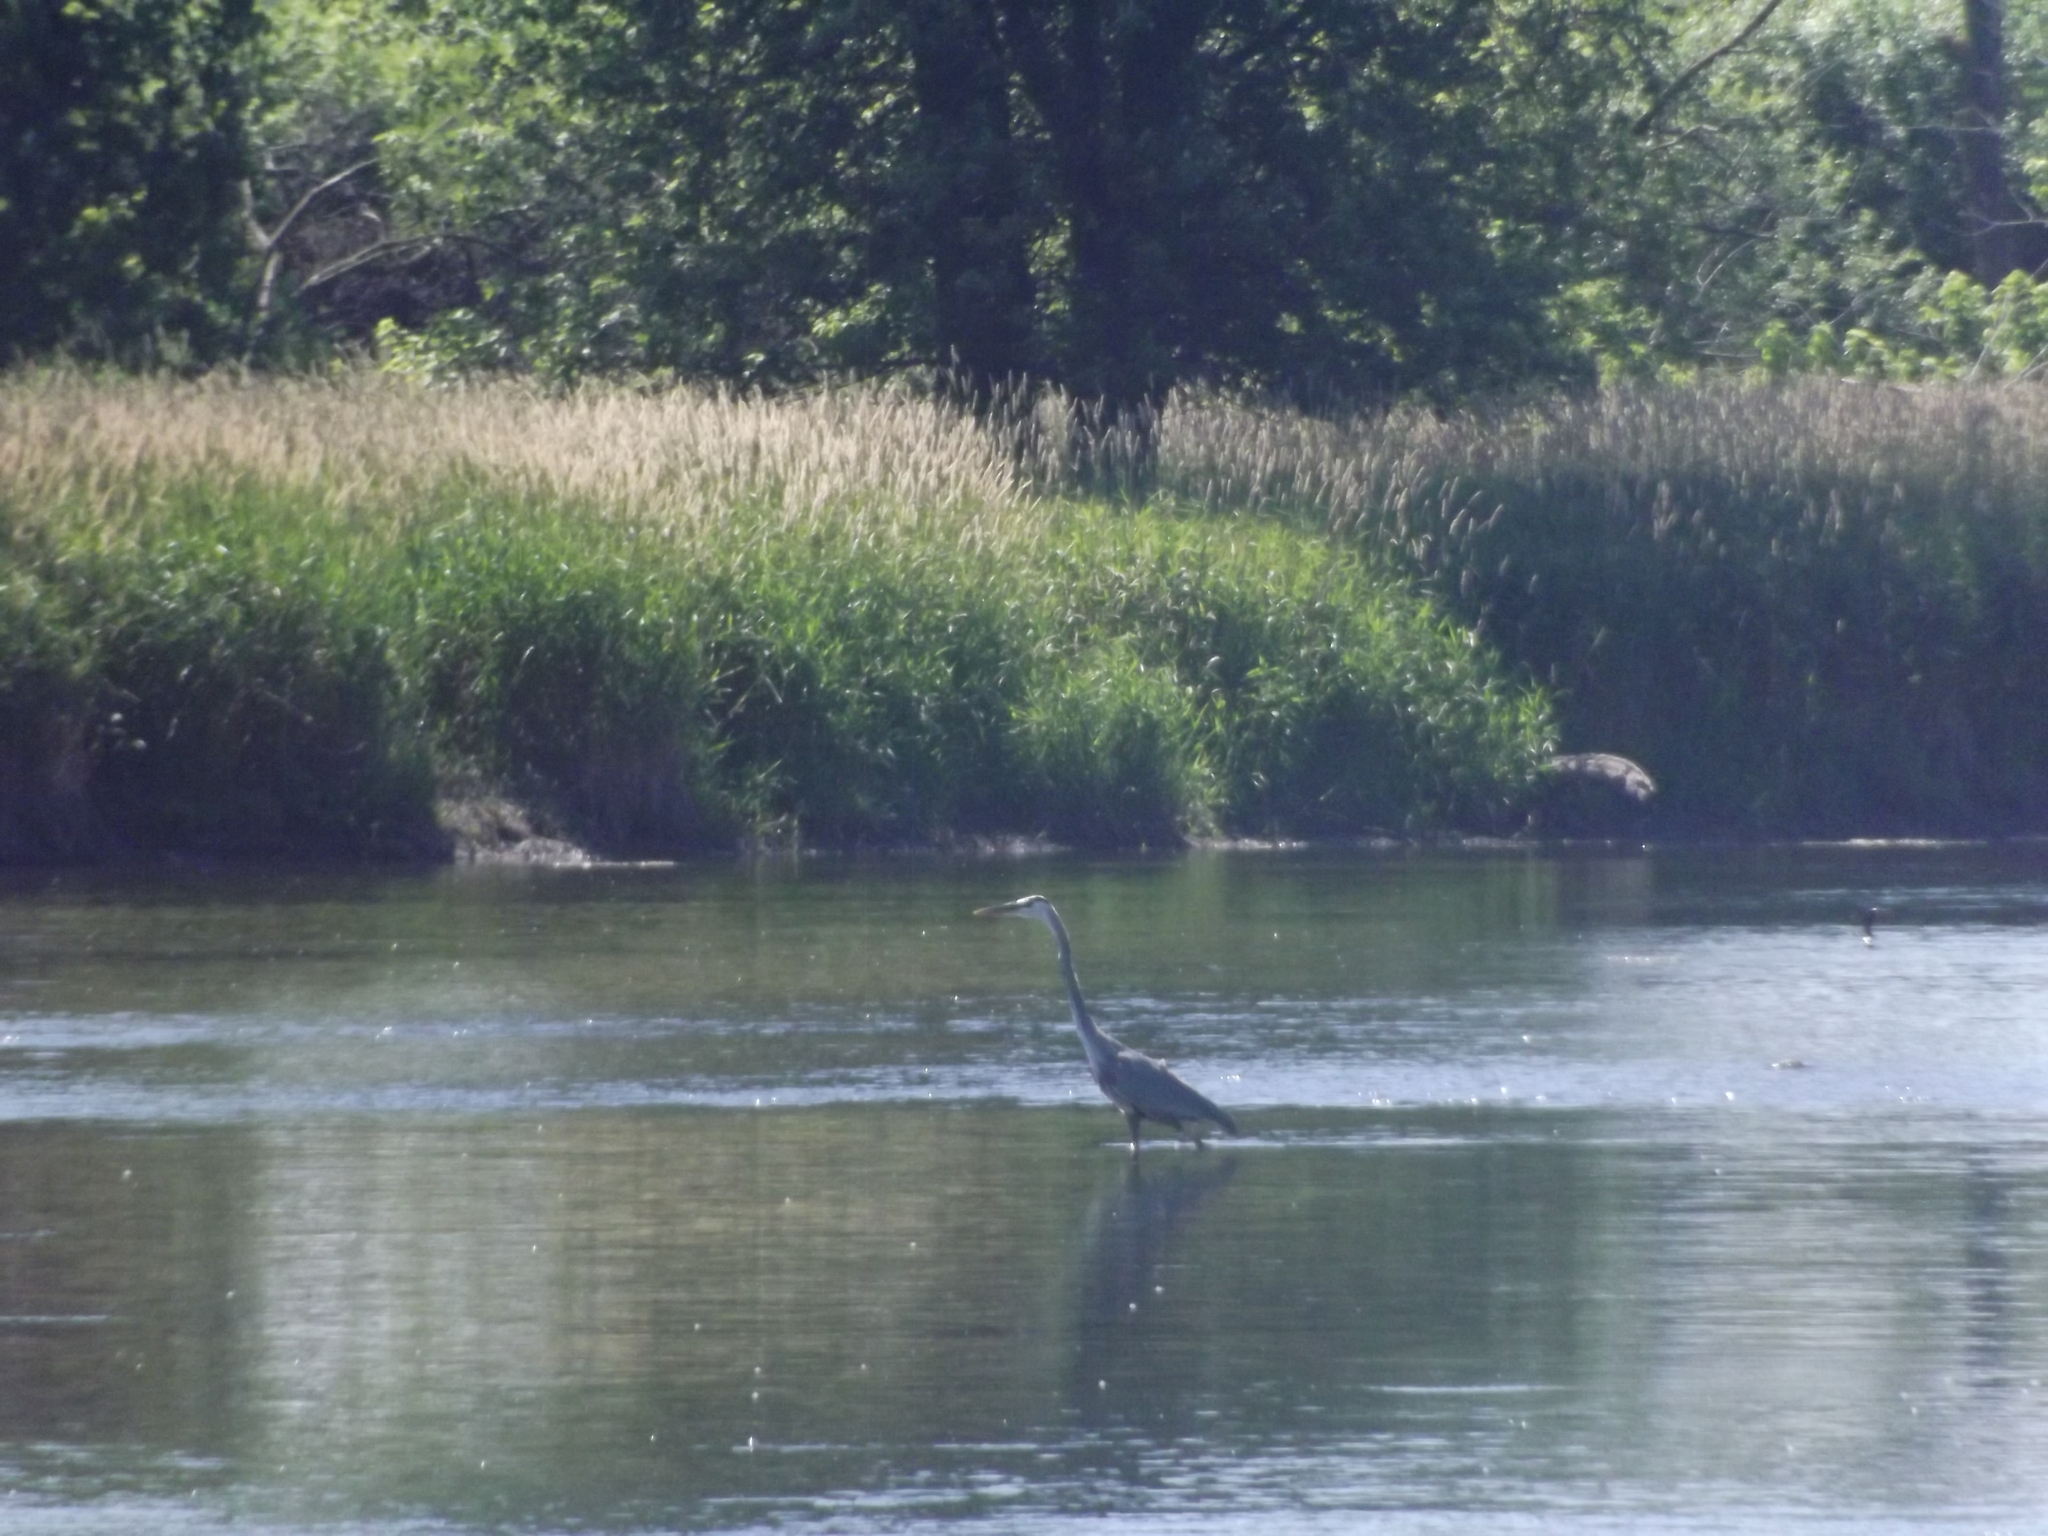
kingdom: Animalia
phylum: Chordata
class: Aves
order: Pelecaniformes
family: Ardeidae
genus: Ardea
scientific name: Ardea herodias
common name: Great blue heron
